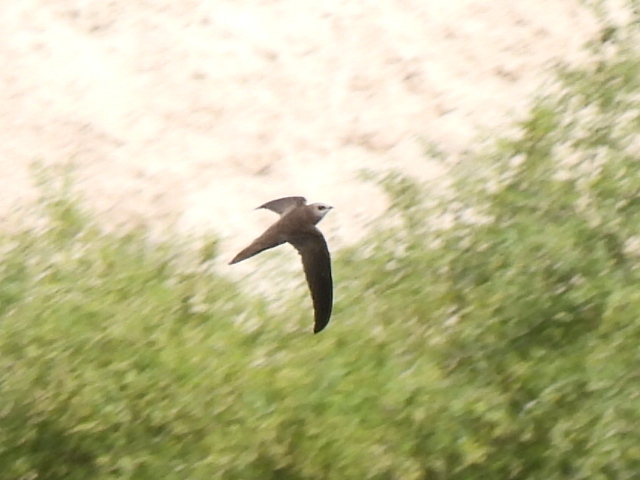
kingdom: Animalia
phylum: Chordata
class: Aves
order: Apodiformes
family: Apodidae
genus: Apus
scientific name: Apus pallidus
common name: Pallid swift
